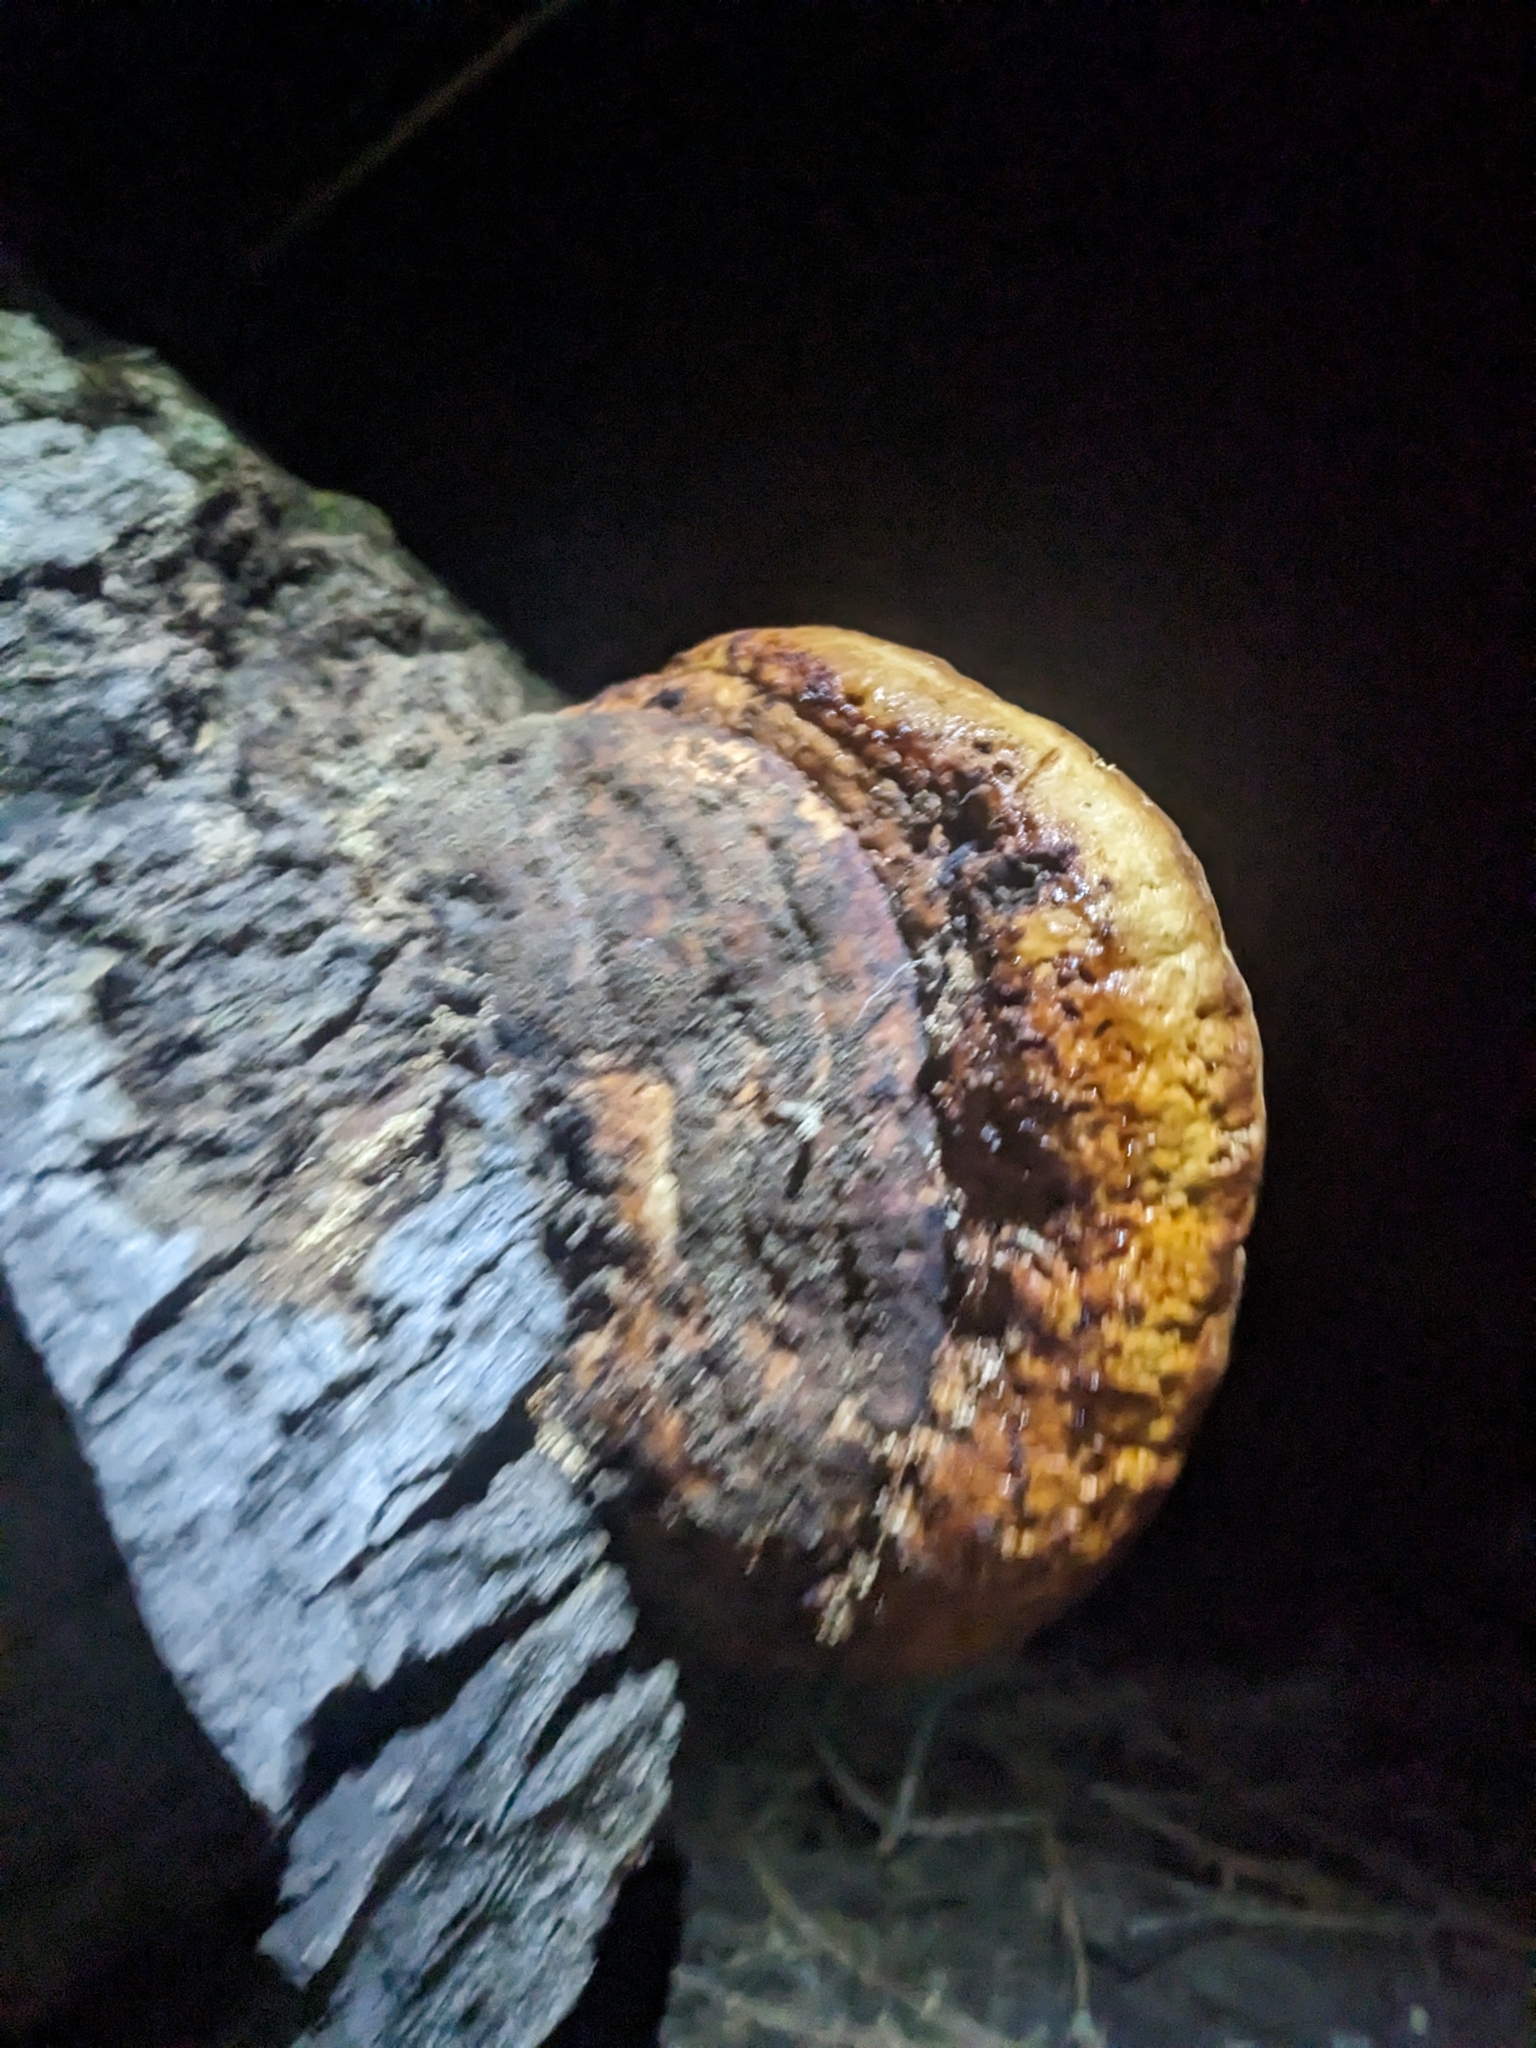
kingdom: Fungi
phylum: Basidiomycota
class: Agaricomycetes
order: Polyporales
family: Fomitopsidaceae
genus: Fomitopsis
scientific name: Fomitopsis schrenkii
